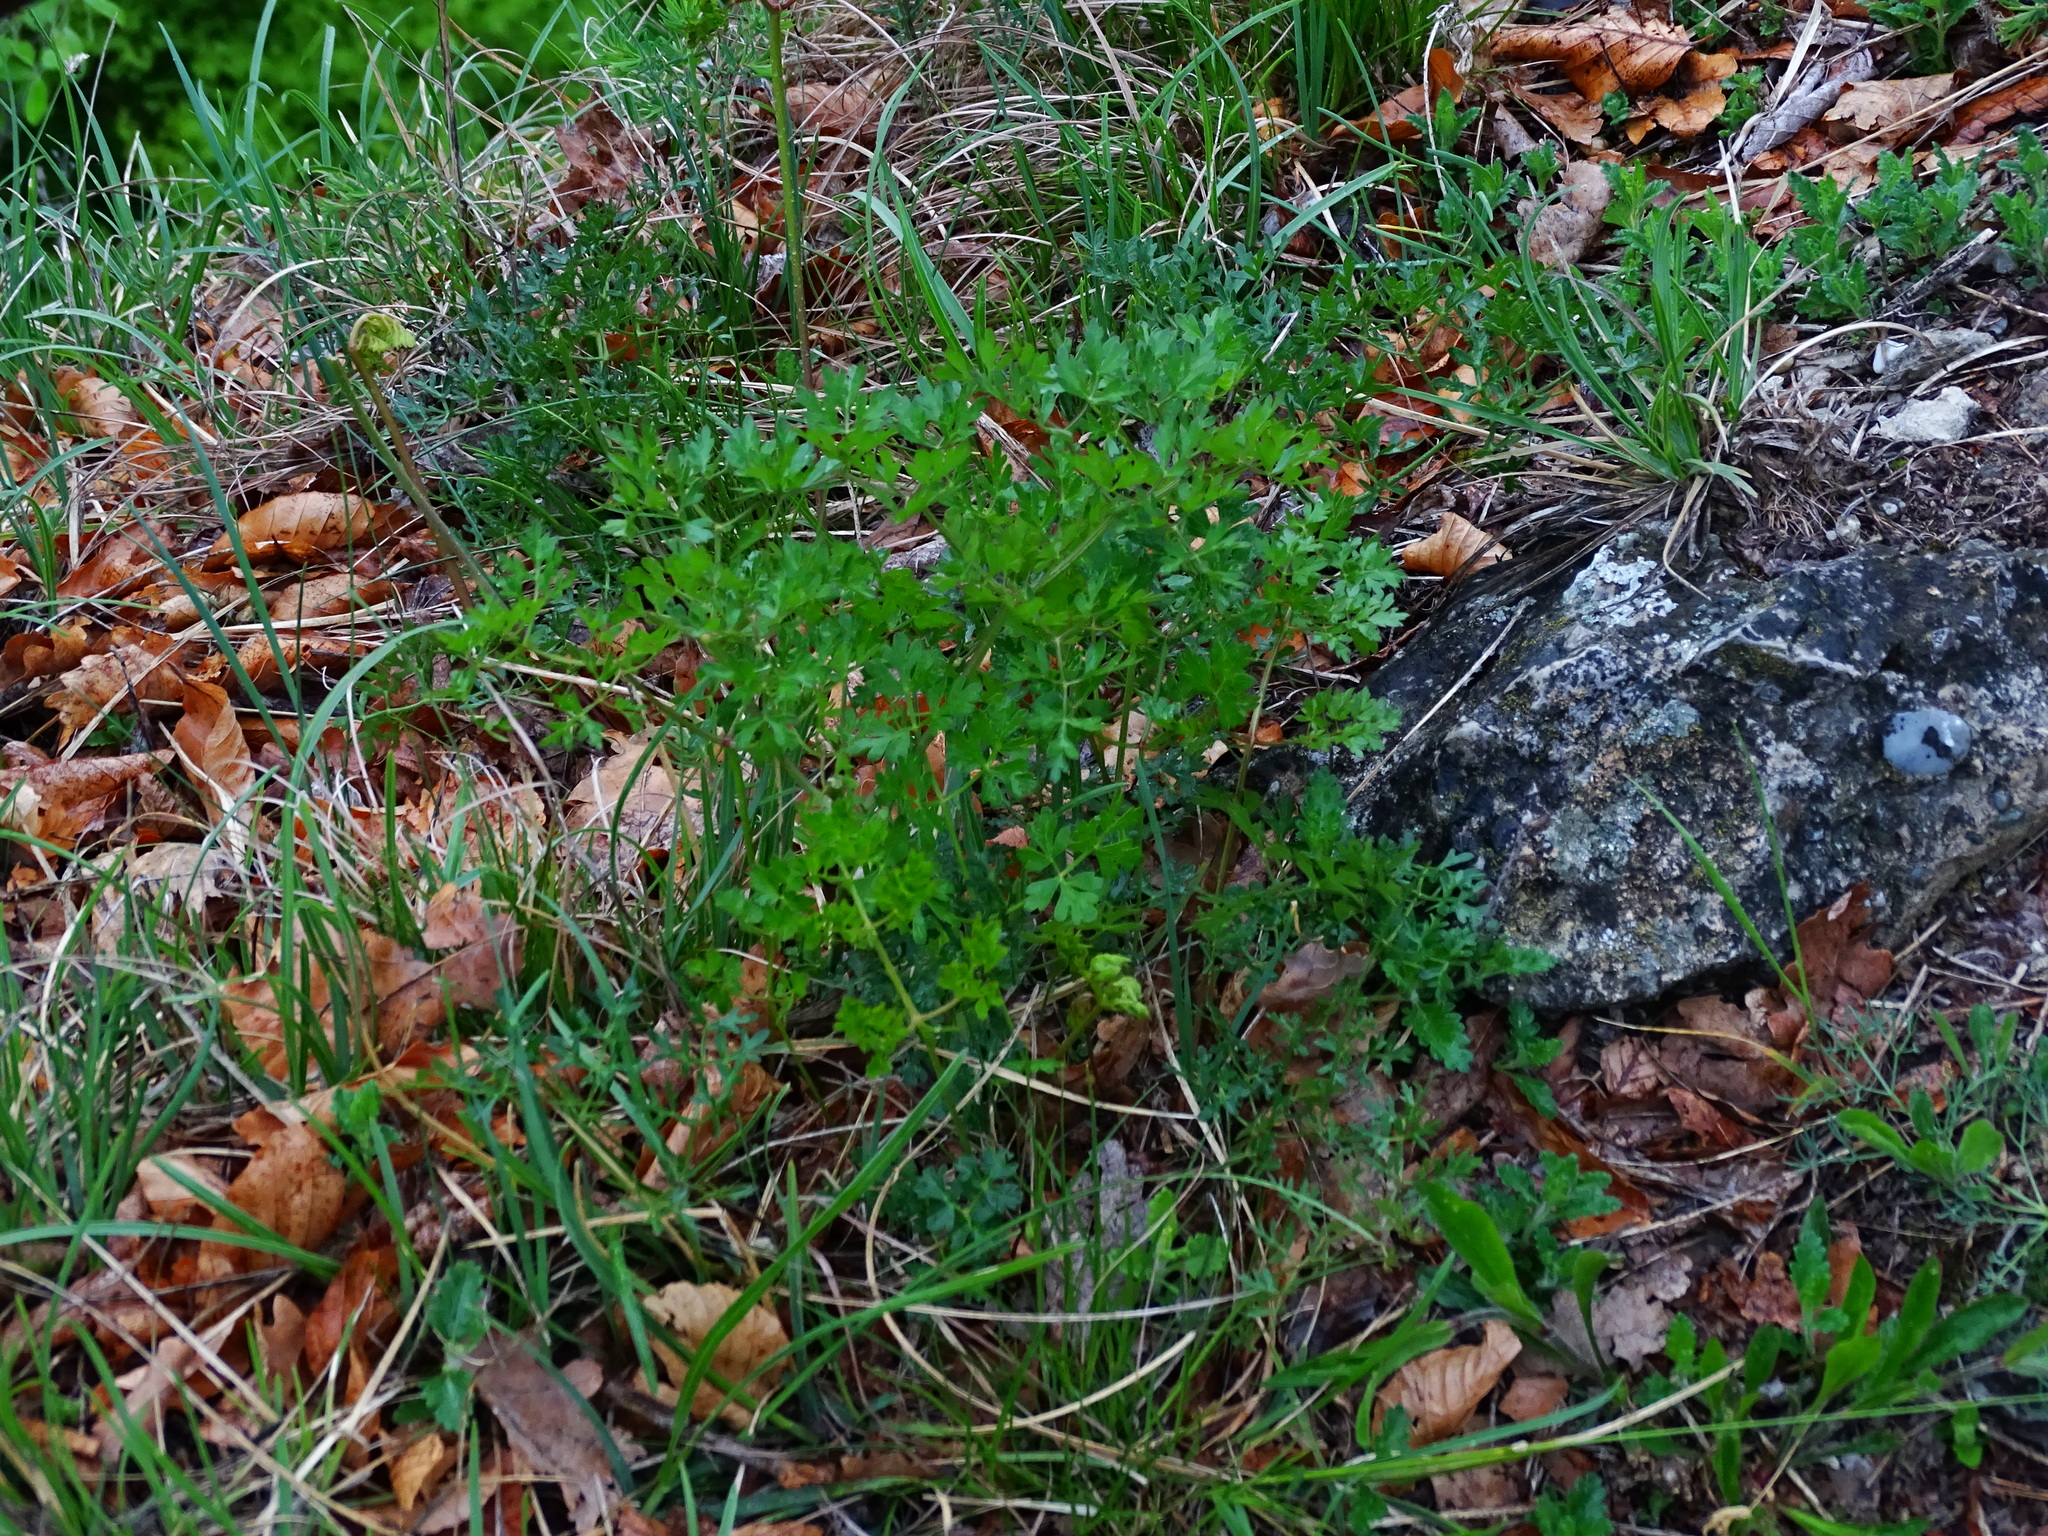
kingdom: Plantae
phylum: Tracheophyta
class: Magnoliopsida
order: Apiales
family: Apiaceae
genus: Oreoselinum
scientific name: Oreoselinum nigrum
